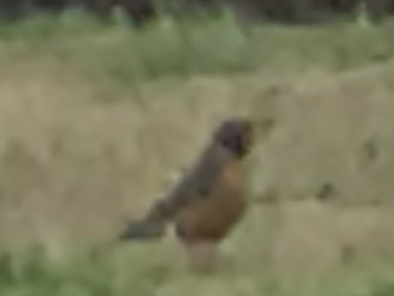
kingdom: Animalia
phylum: Chordata
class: Aves
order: Passeriformes
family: Turdidae
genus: Turdus
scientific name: Turdus migratorius
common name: American robin
